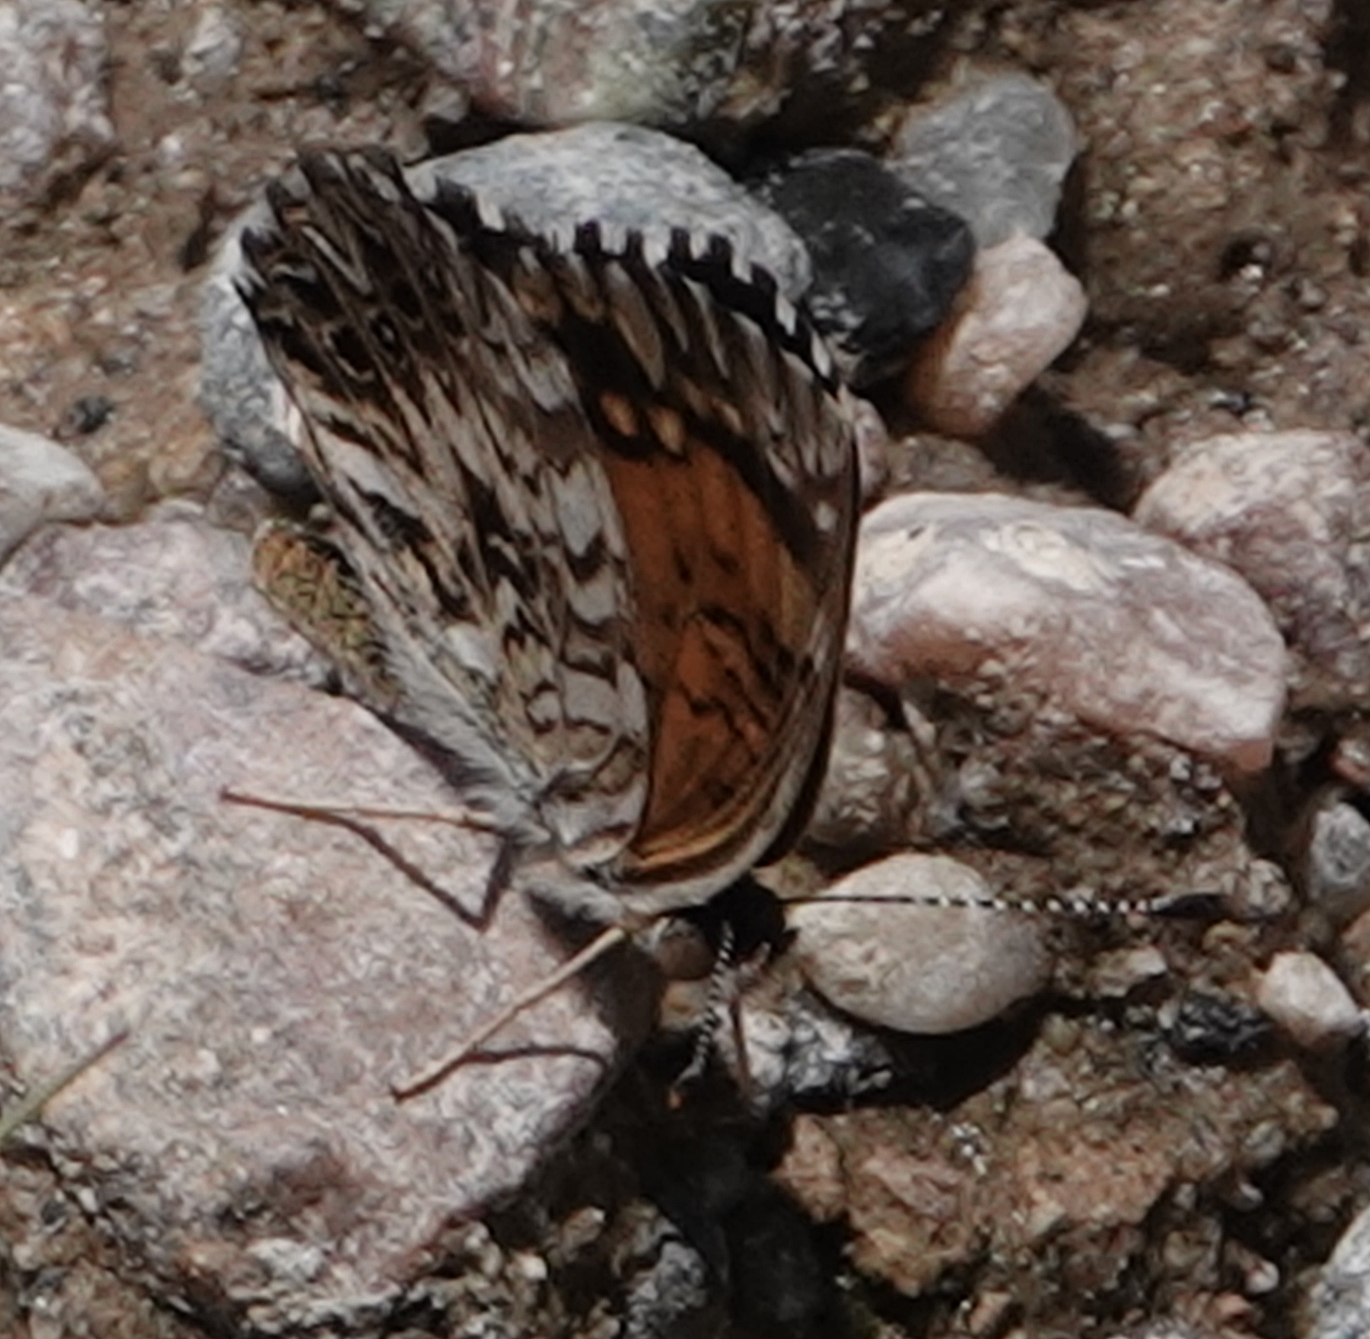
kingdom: Animalia
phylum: Arthropoda
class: Insecta
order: Lepidoptera
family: Nymphalidae
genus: Chlosyne
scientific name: Chlosyne gorgone
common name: Gorgone checkerspot
